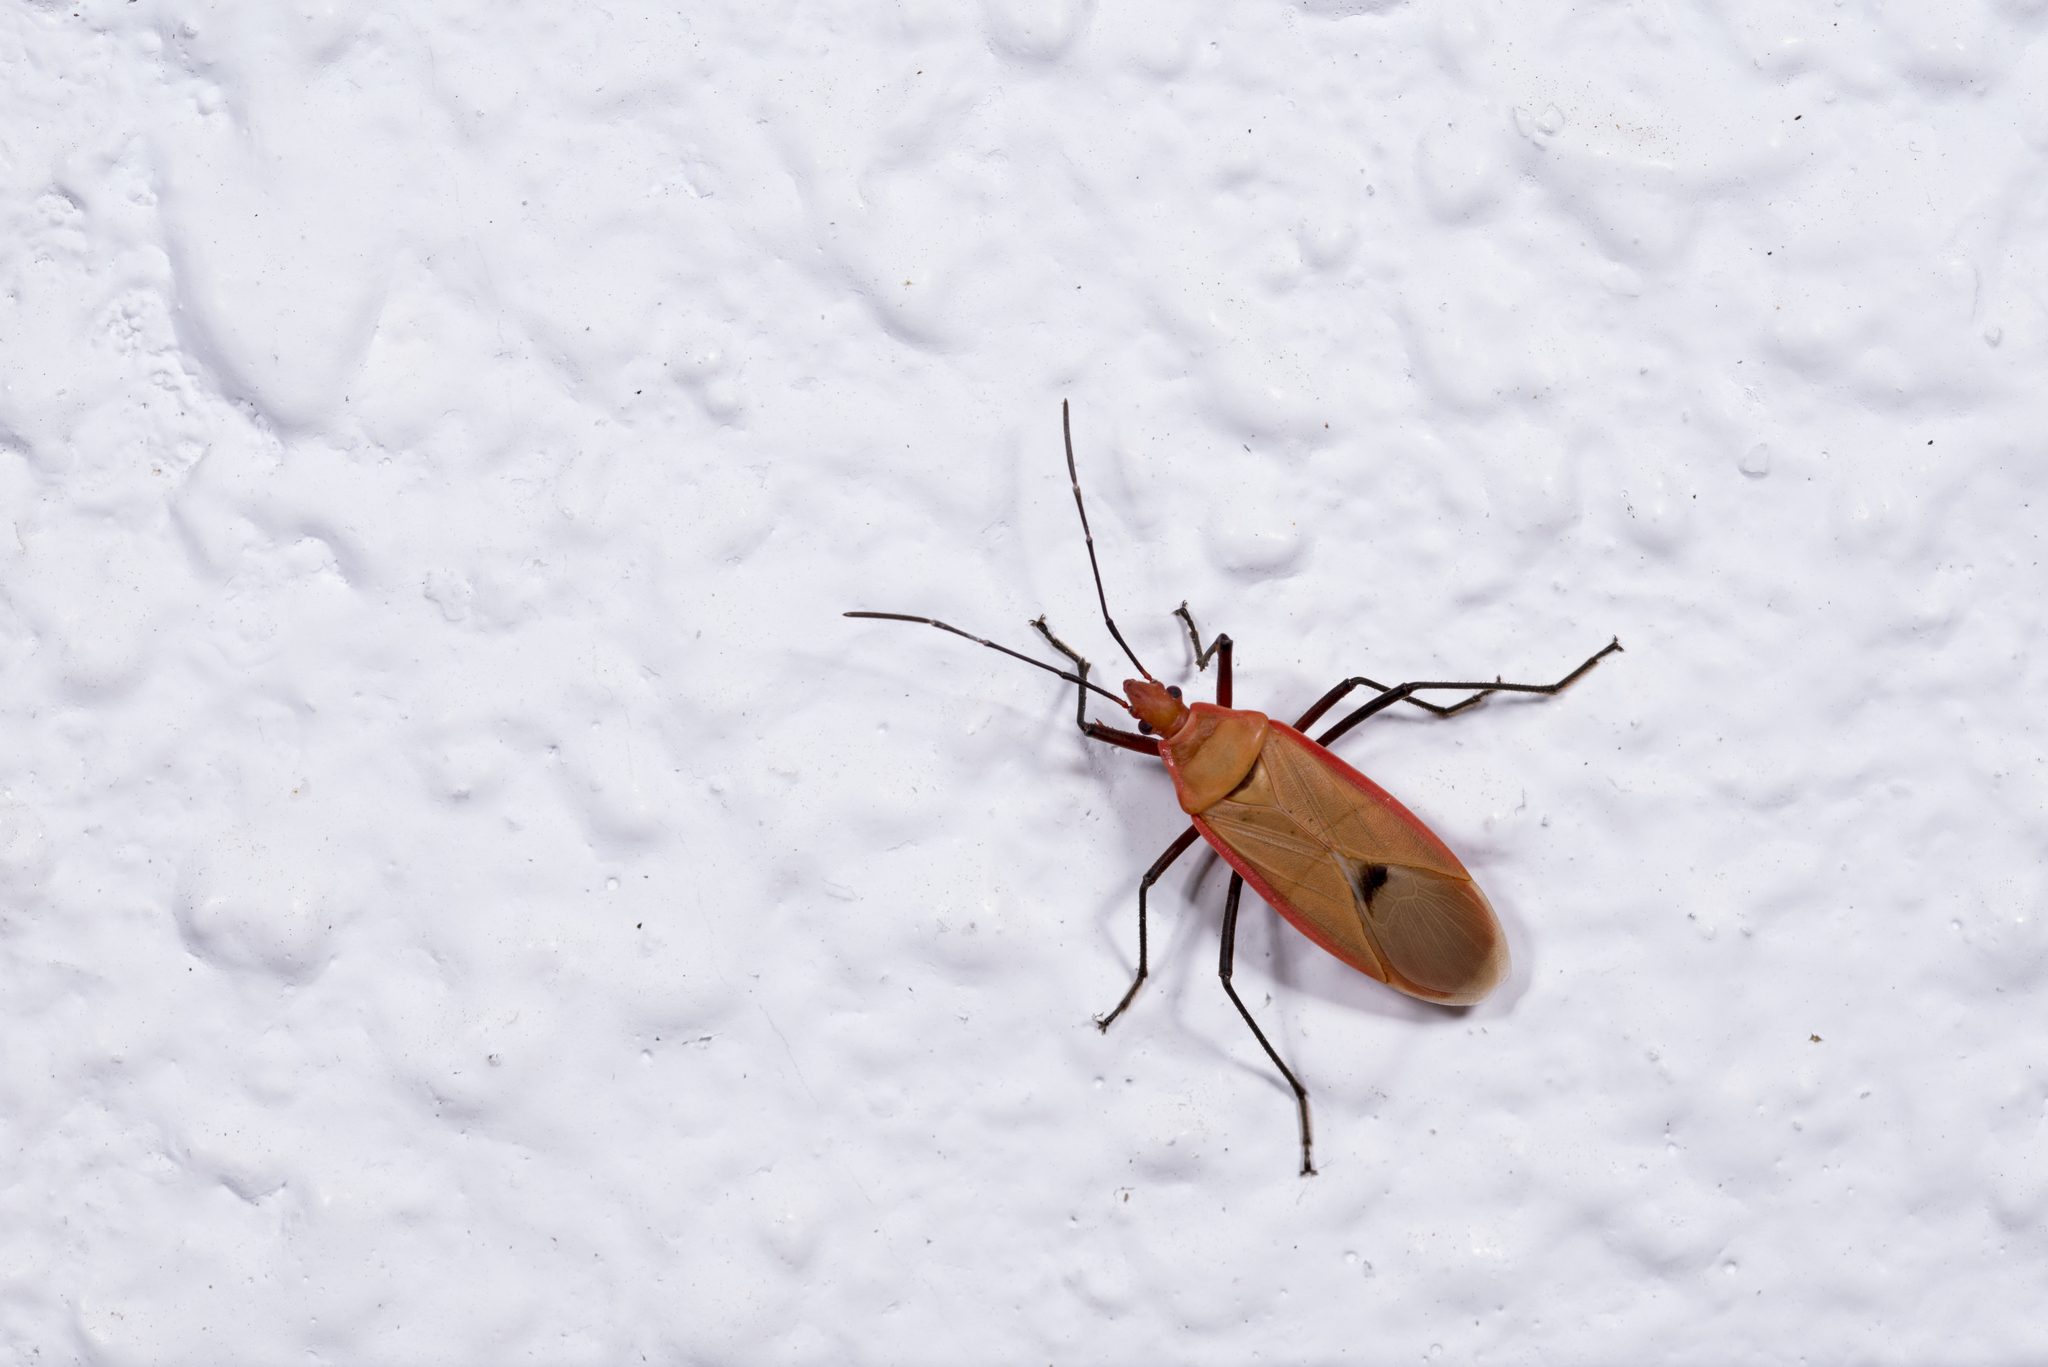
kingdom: Animalia
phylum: Arthropoda
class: Insecta
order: Hemiptera
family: Pyrrhocoridae
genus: Dysdercus
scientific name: Dysdercus fuscomaculatus
